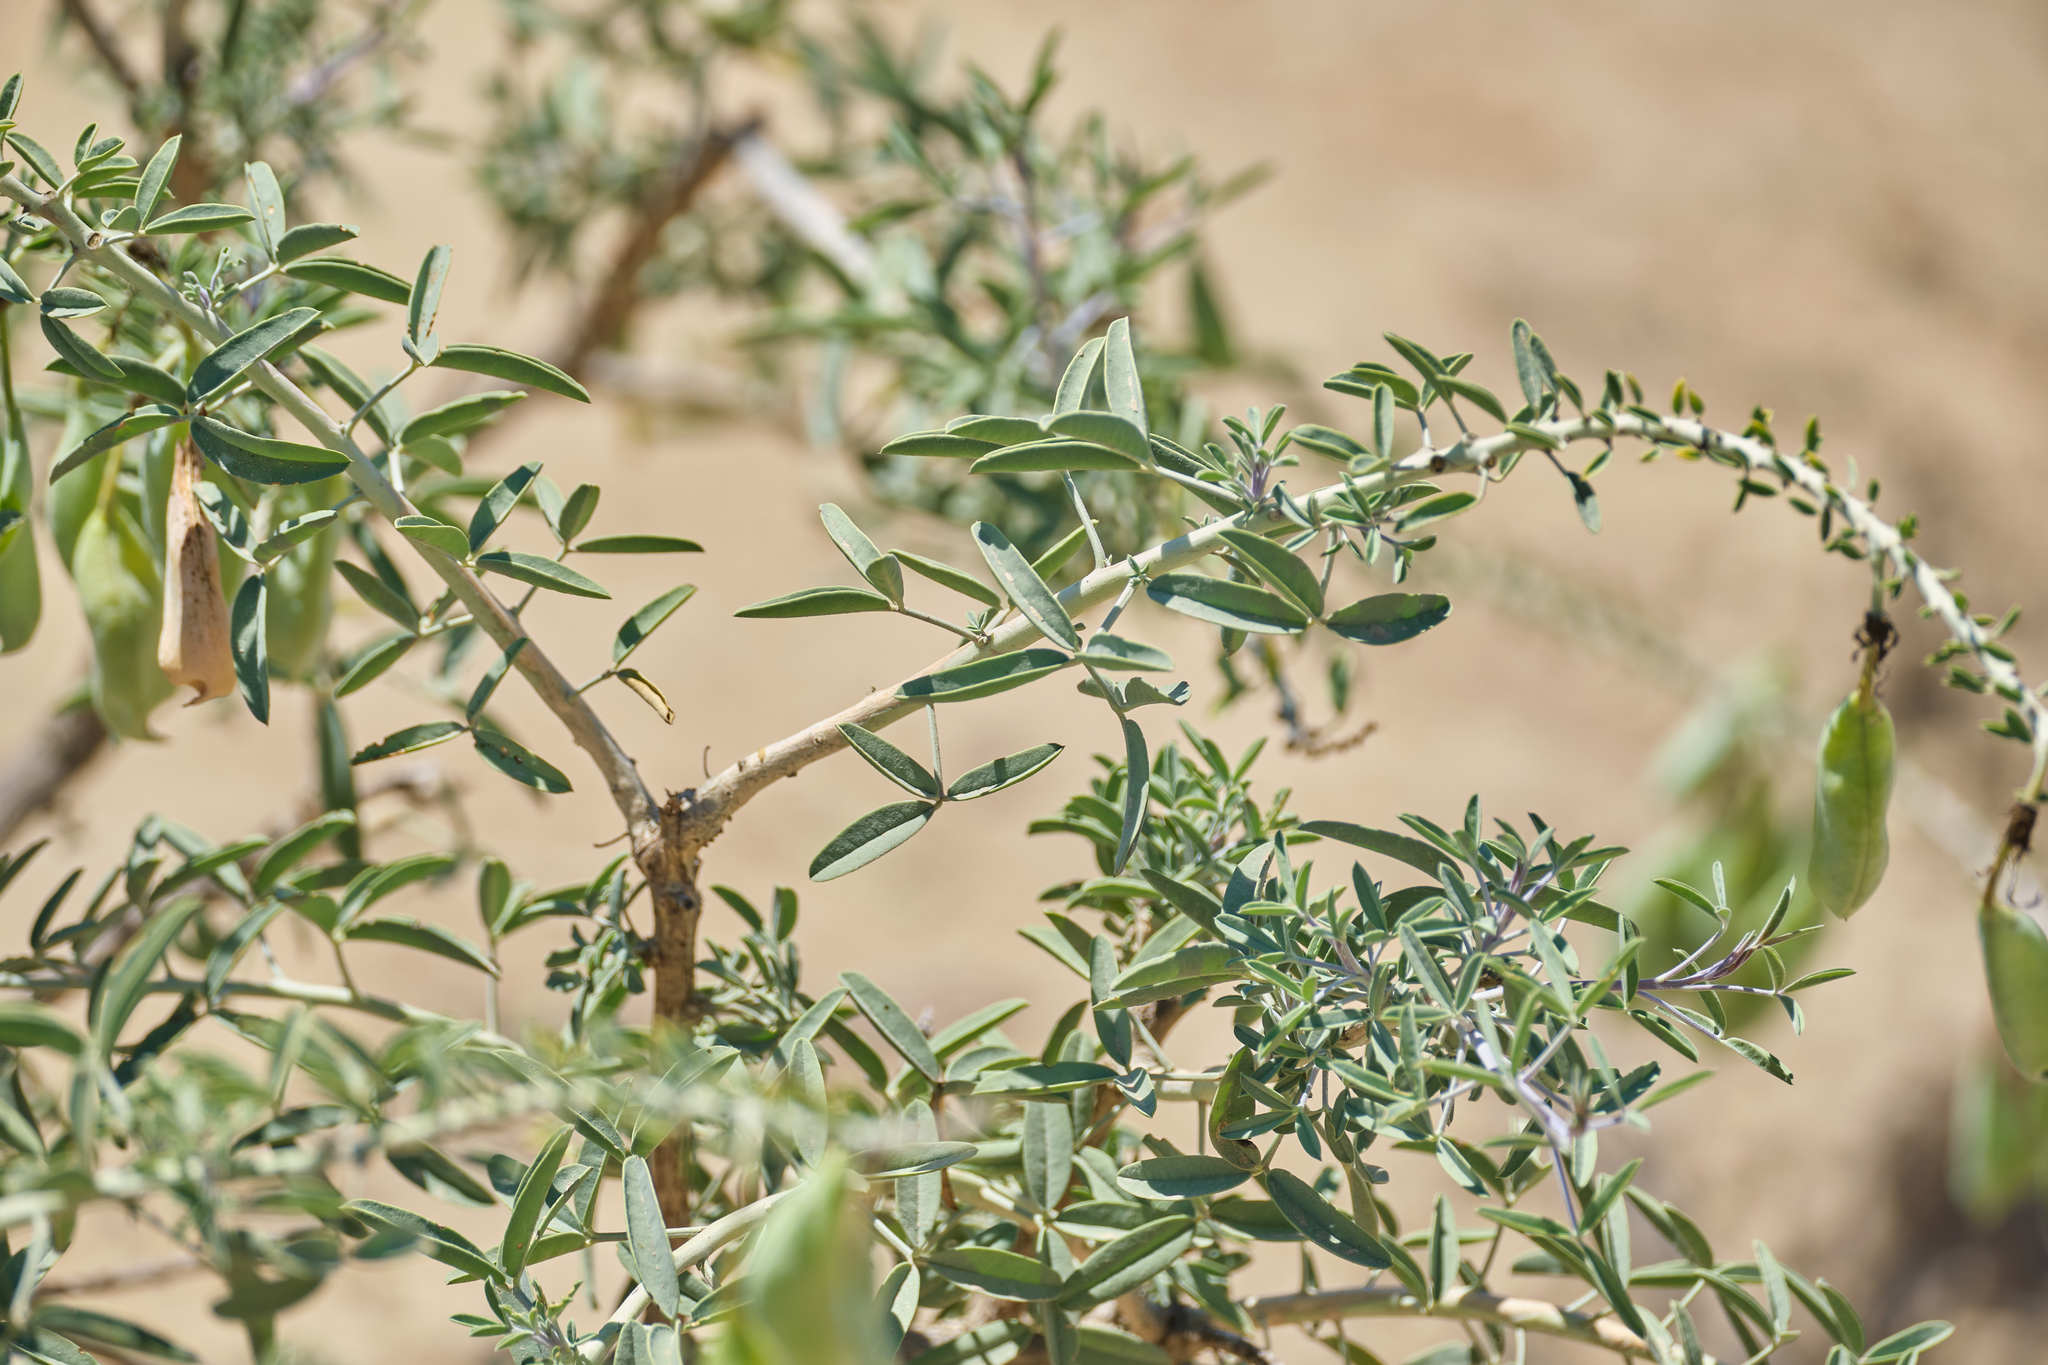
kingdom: Plantae
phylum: Tracheophyta
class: Magnoliopsida
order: Brassicales
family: Cleomaceae
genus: Cleomella
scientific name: Cleomella arborea
